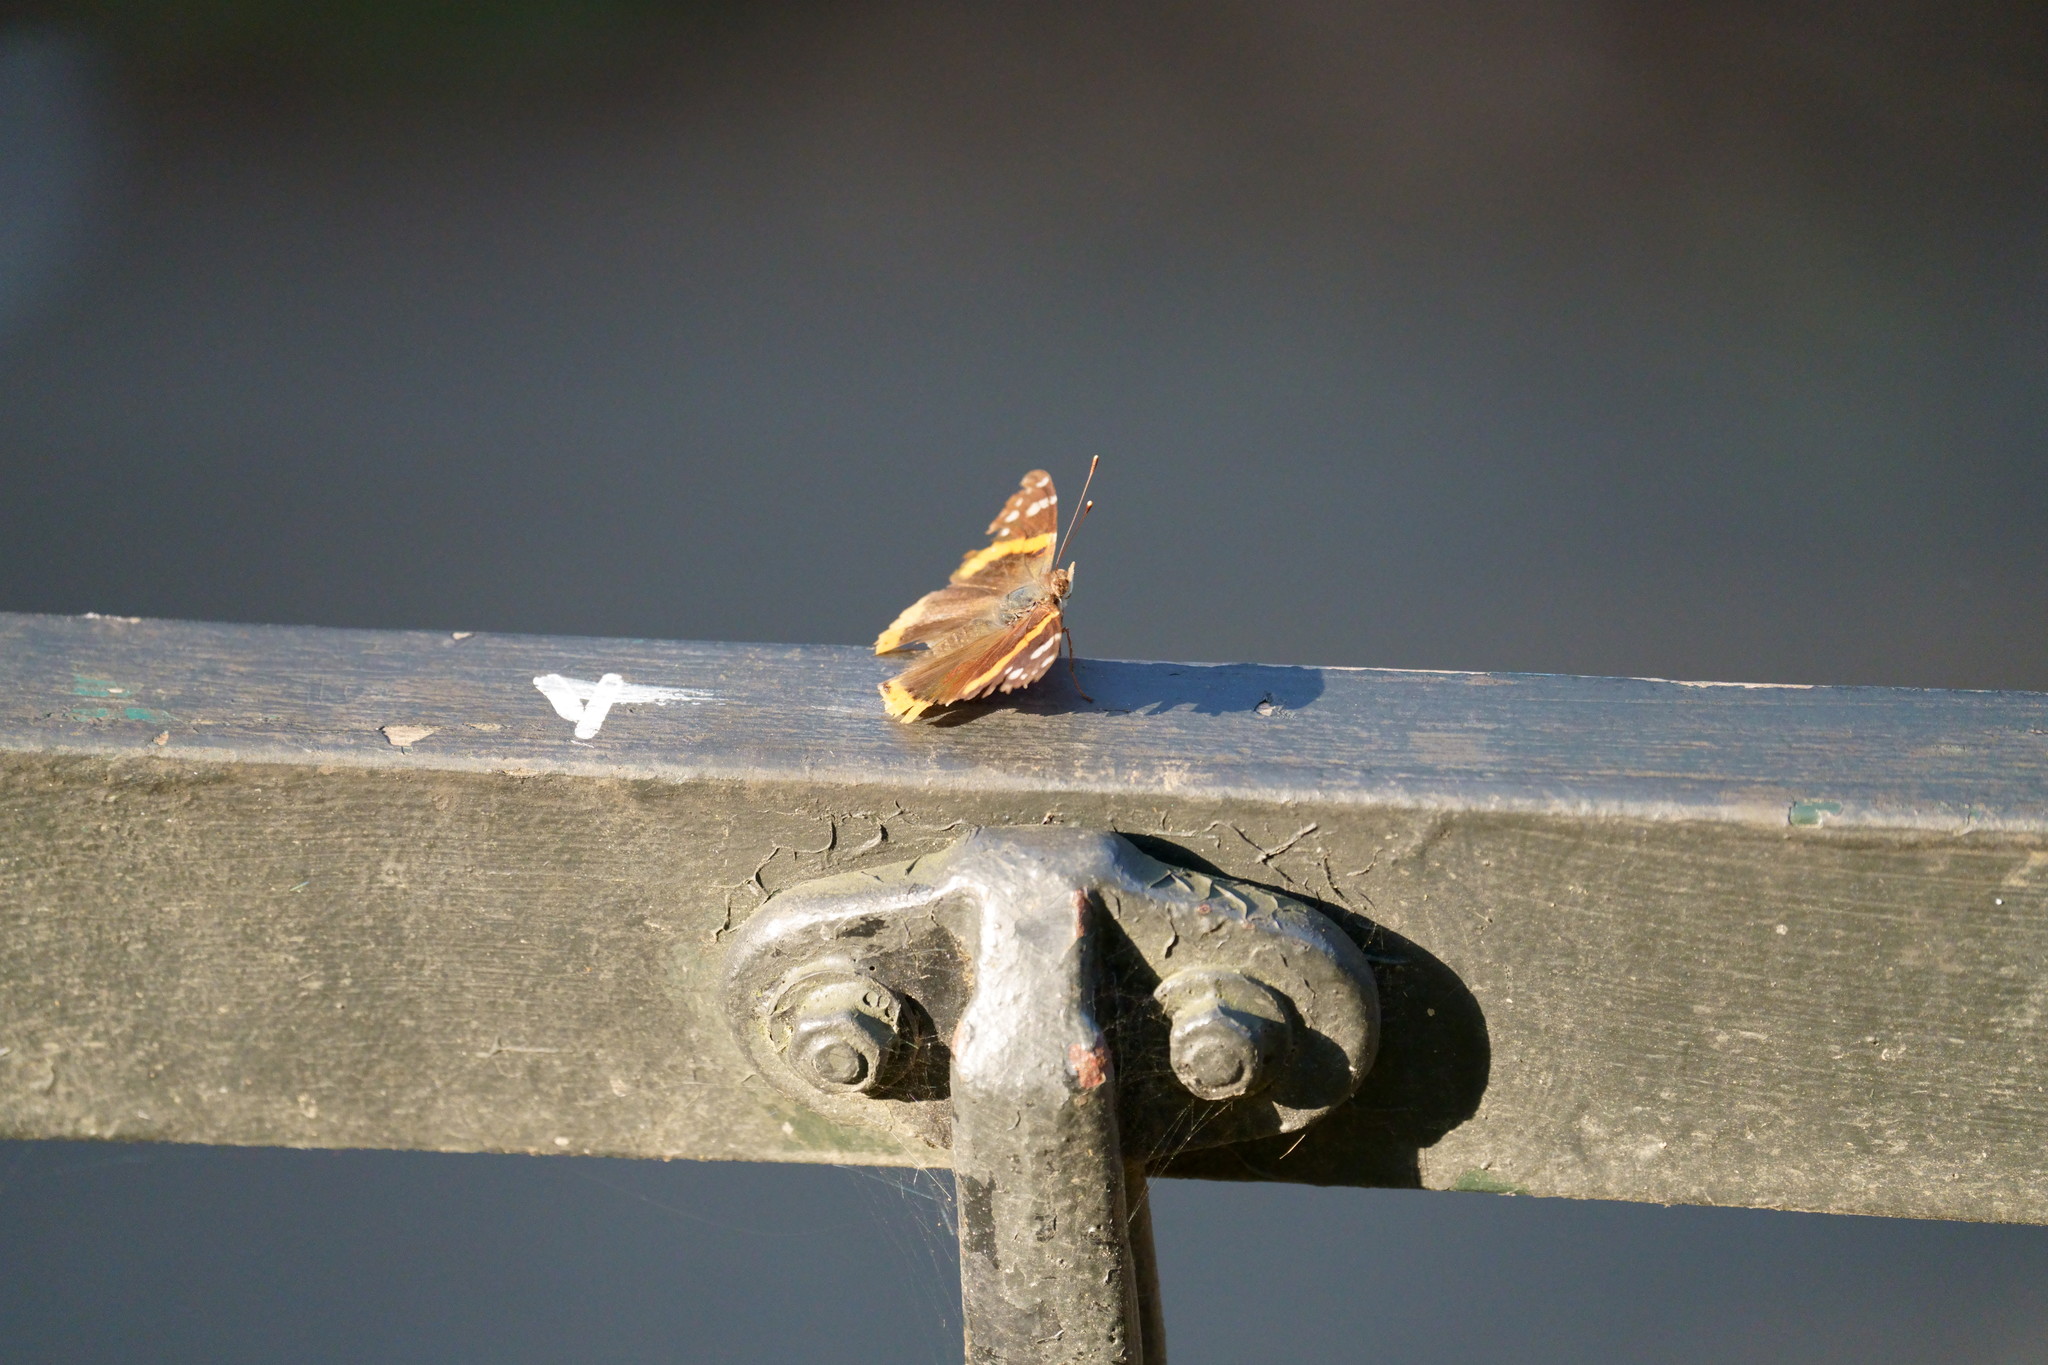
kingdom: Animalia
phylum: Arthropoda
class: Insecta
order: Lepidoptera
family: Nymphalidae
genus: Vanessa
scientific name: Vanessa atalanta
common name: Red admiral
